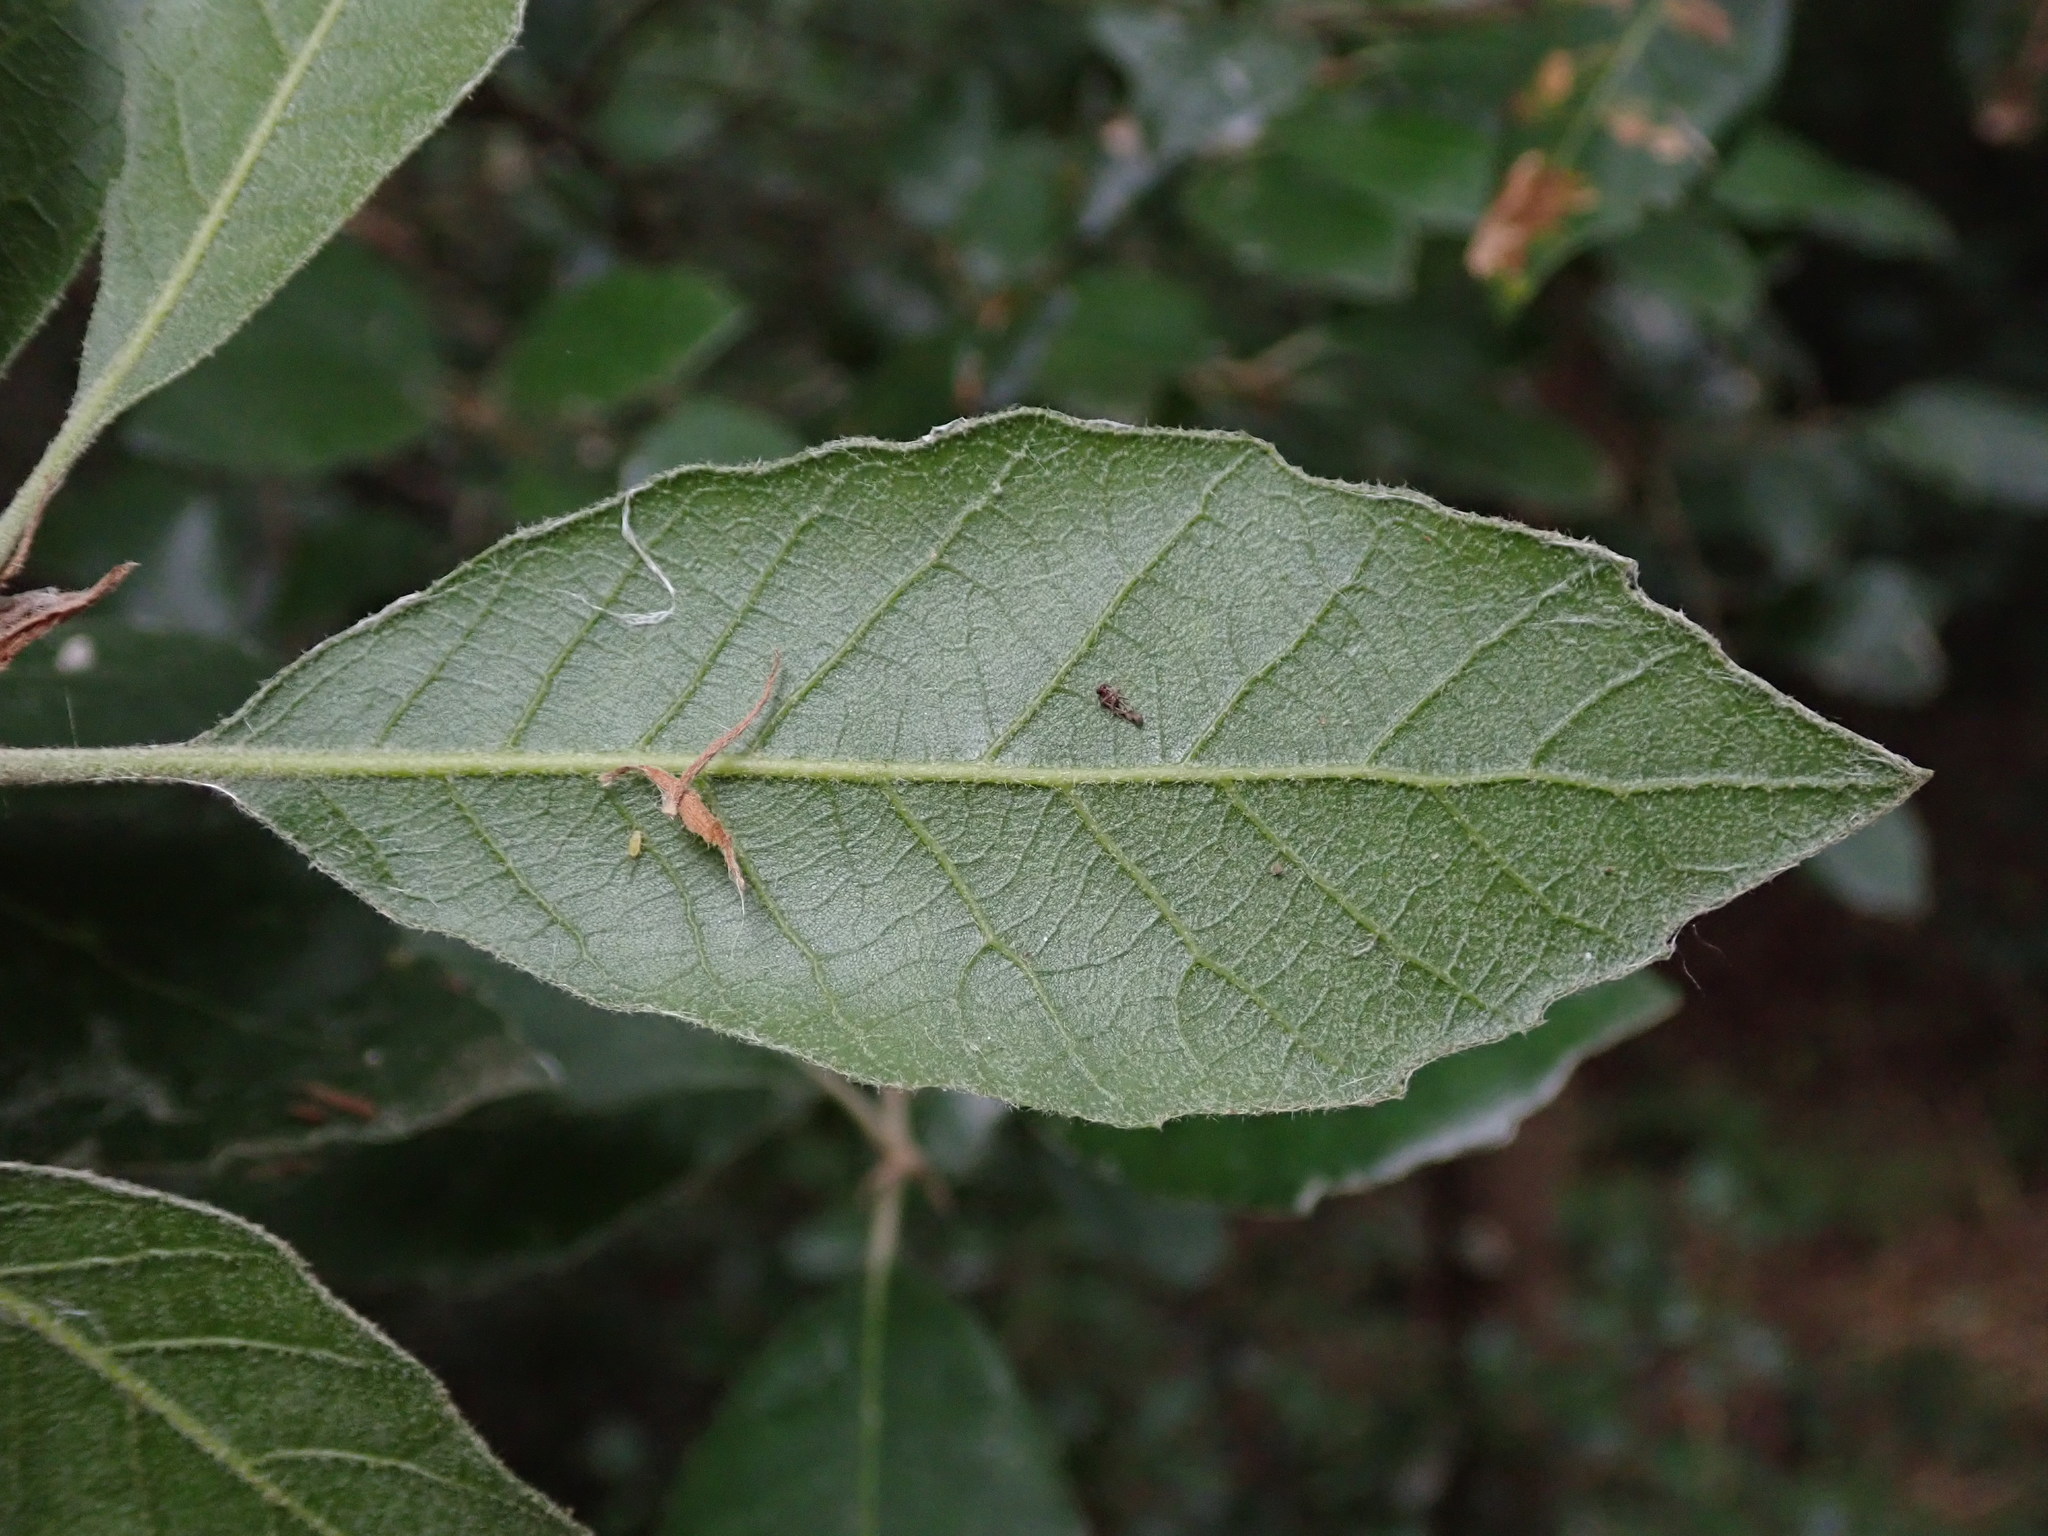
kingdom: Plantae
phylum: Tracheophyta
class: Magnoliopsida
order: Fagales
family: Fagaceae
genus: Quercus
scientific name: Quercus ilex
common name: Evergreen oak
